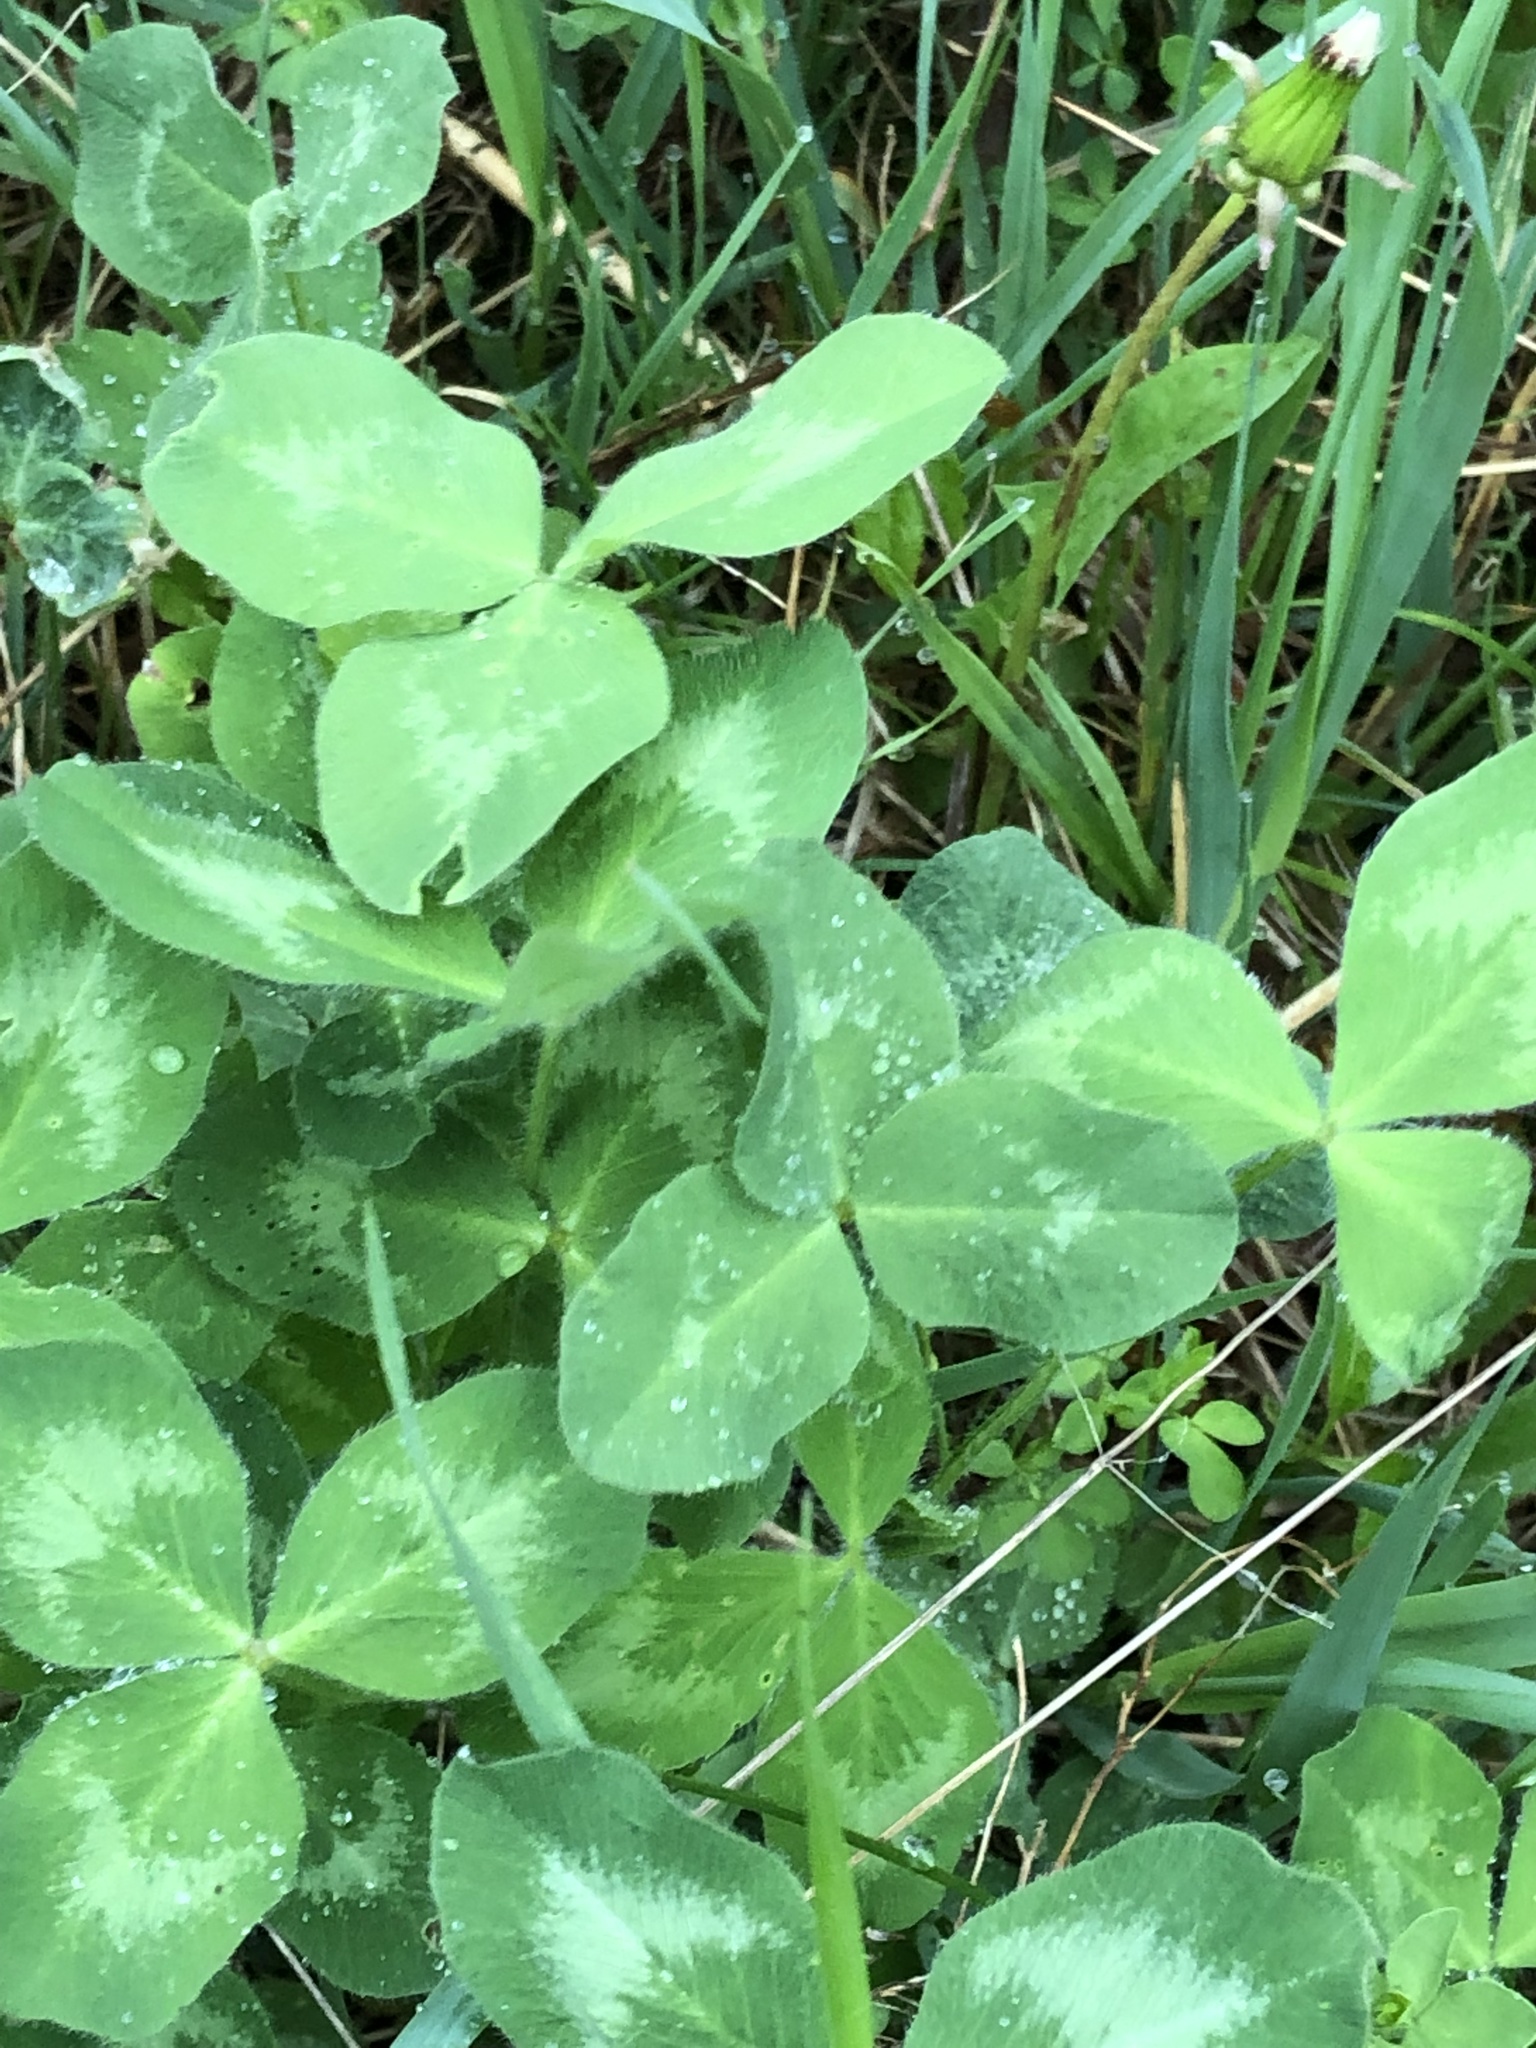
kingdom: Plantae
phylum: Tracheophyta
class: Magnoliopsida
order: Fabales
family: Fabaceae
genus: Trifolium
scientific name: Trifolium pratense
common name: Red clover
